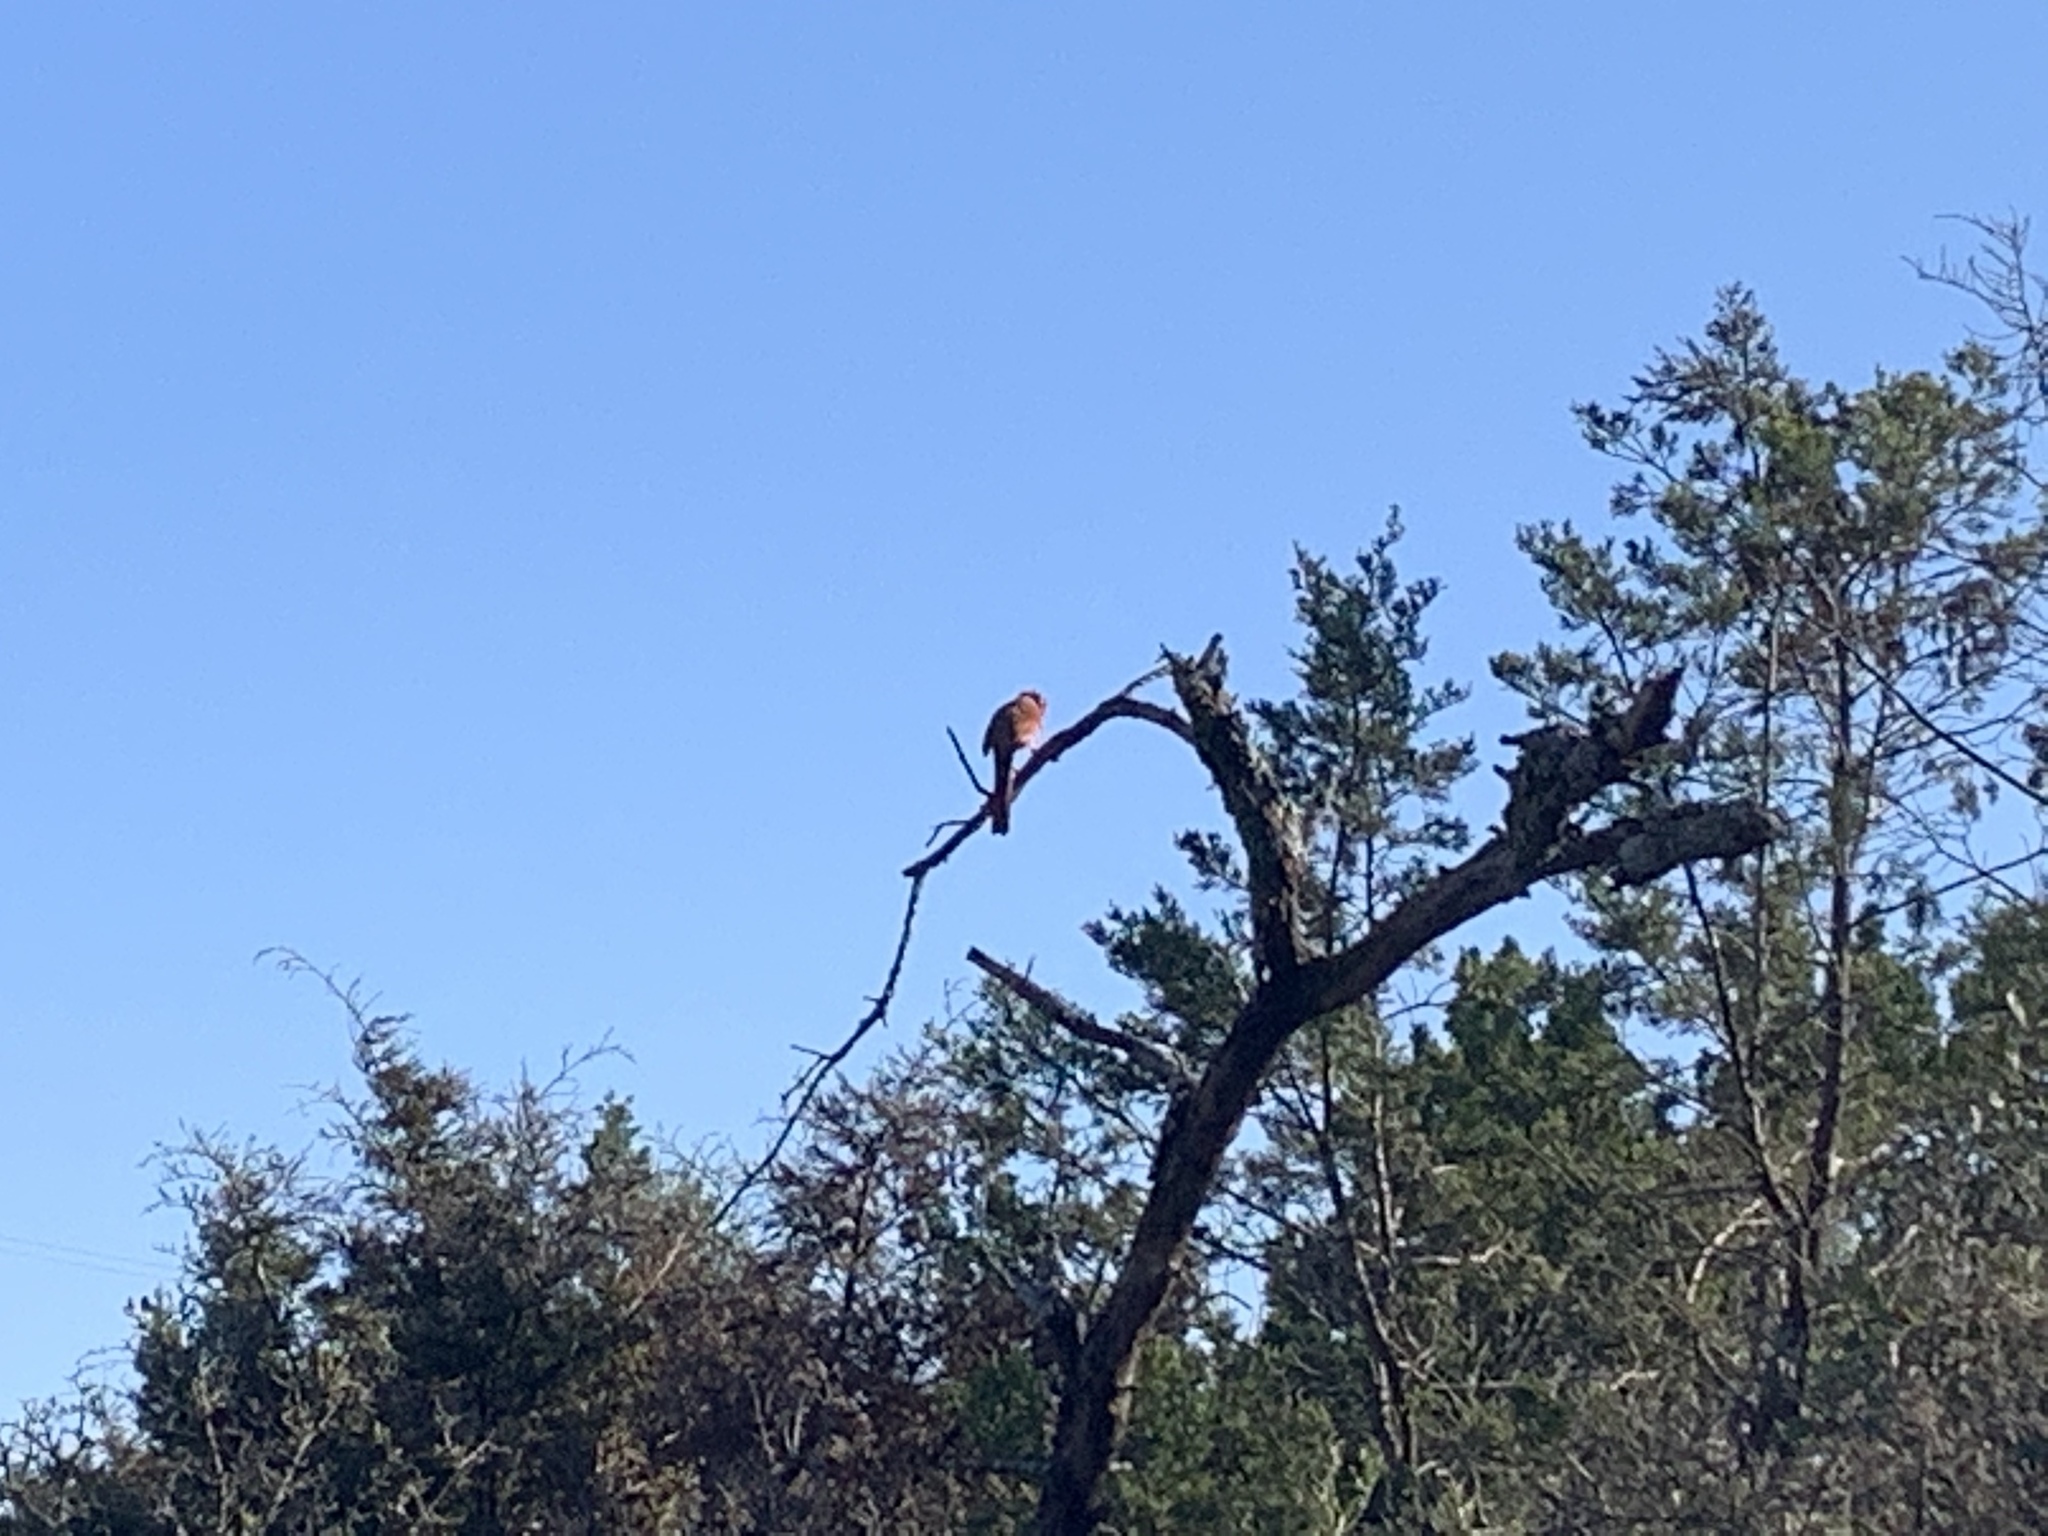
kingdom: Animalia
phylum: Chordata
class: Aves
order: Passeriformes
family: Cardinalidae
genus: Cardinalis
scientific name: Cardinalis cardinalis
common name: Northern cardinal
